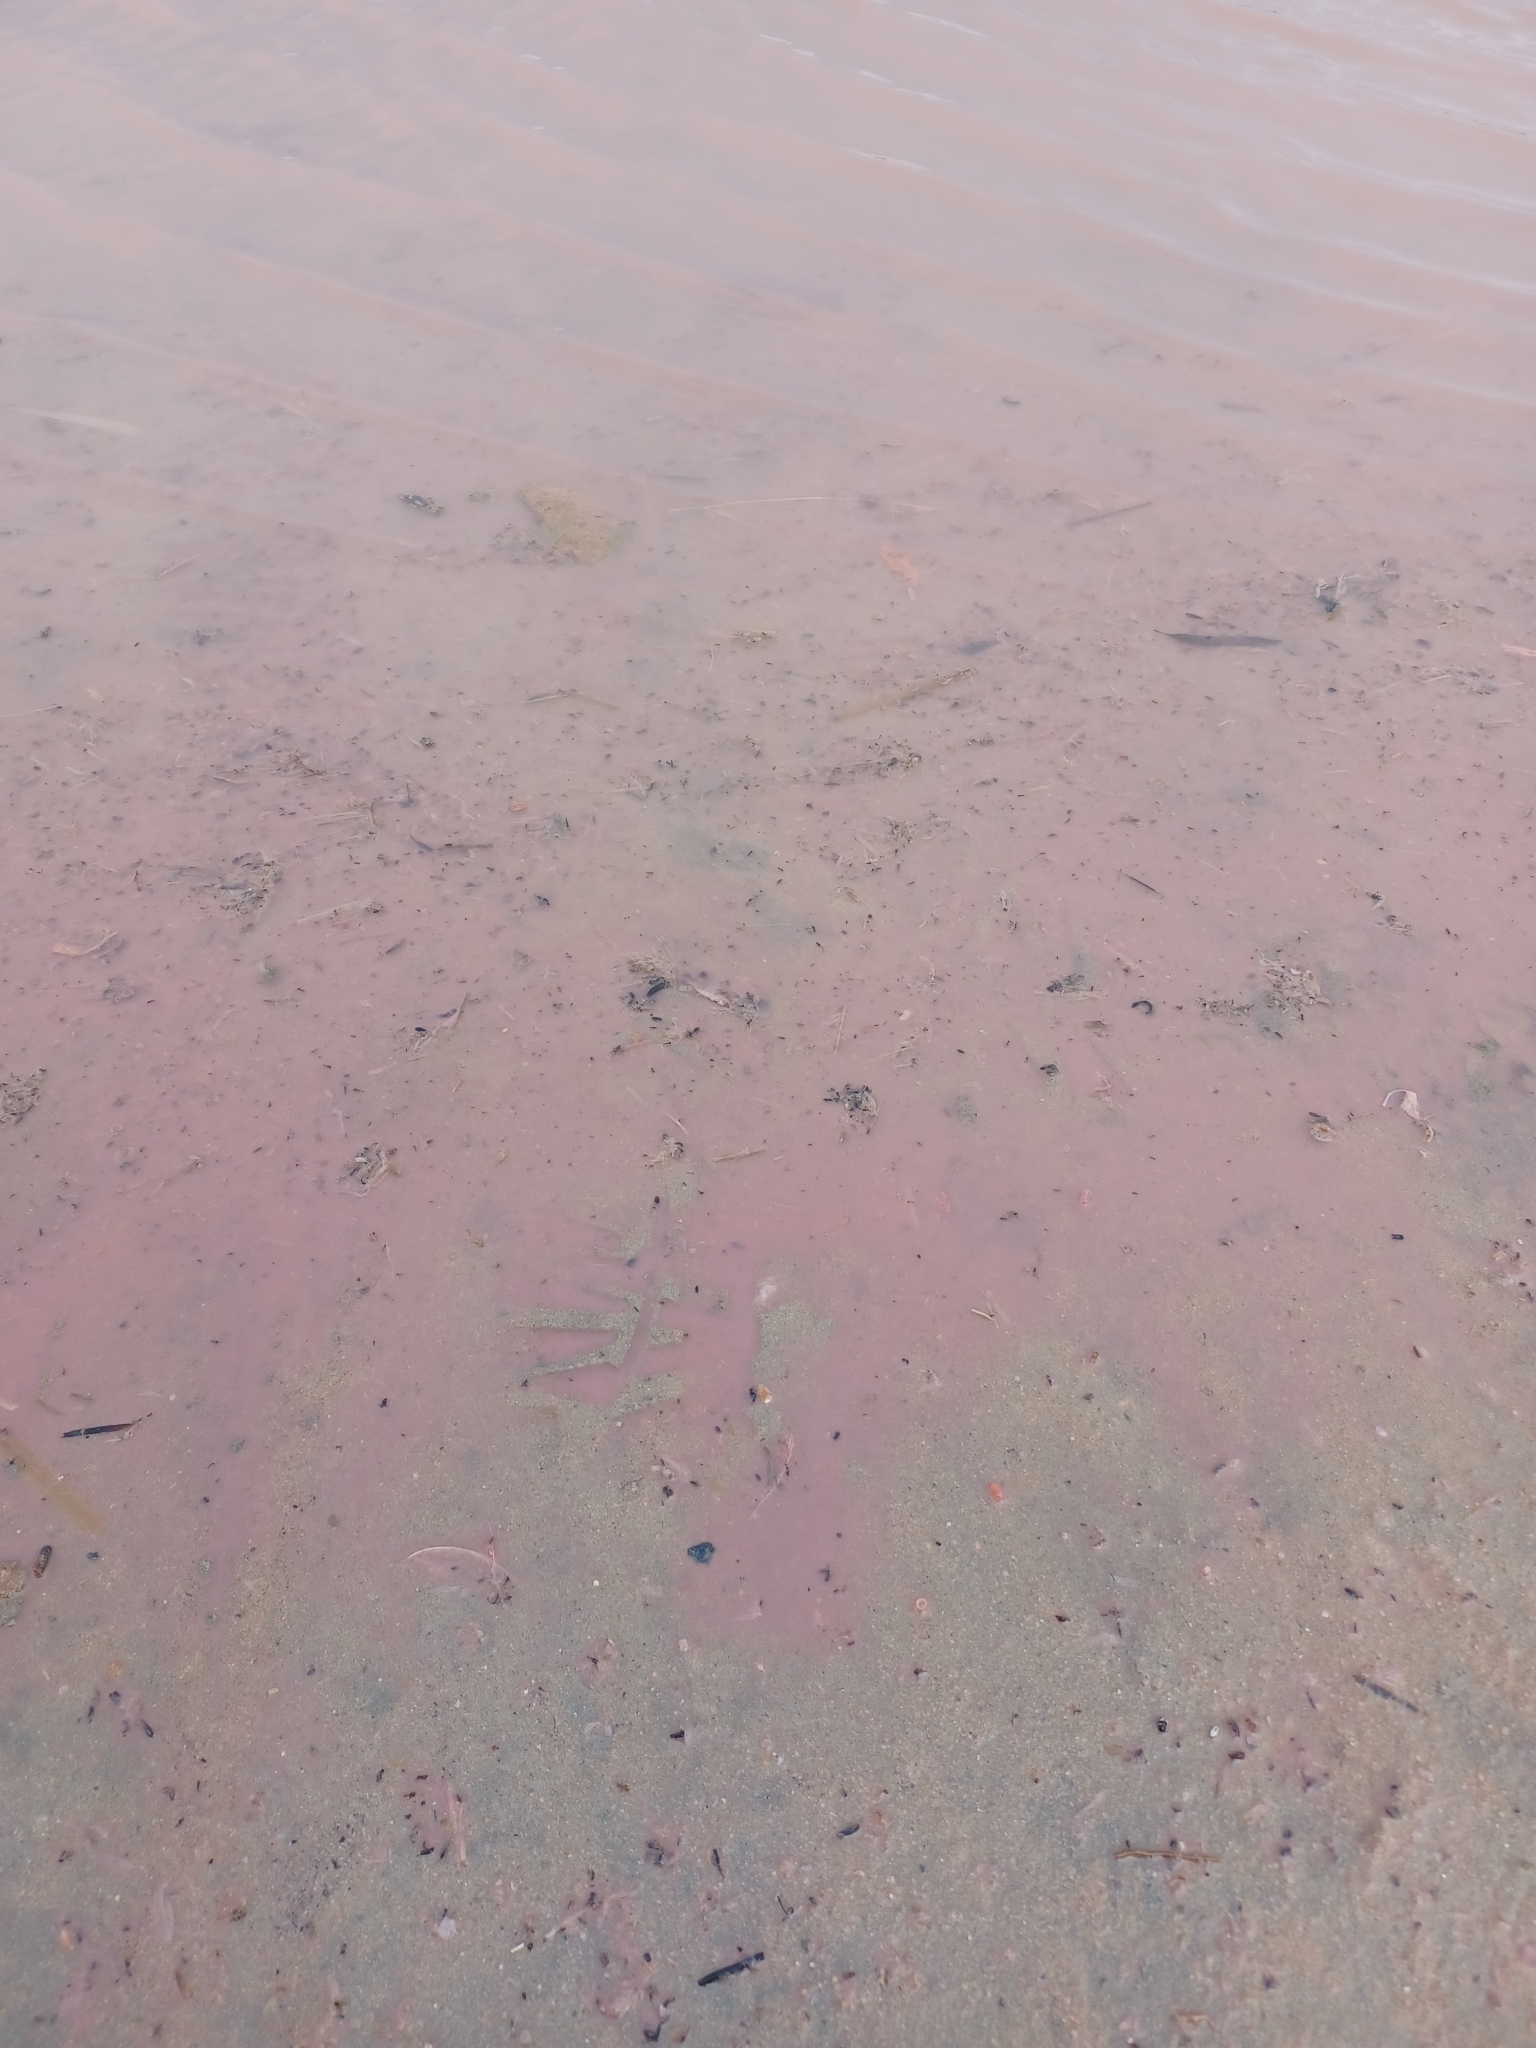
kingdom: Bacteria
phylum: Bacteroidota
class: Rhodothermia
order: Rhodothermales
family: Salinibacteraceae
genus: Salinibacter
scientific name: Salinibacter ruber
